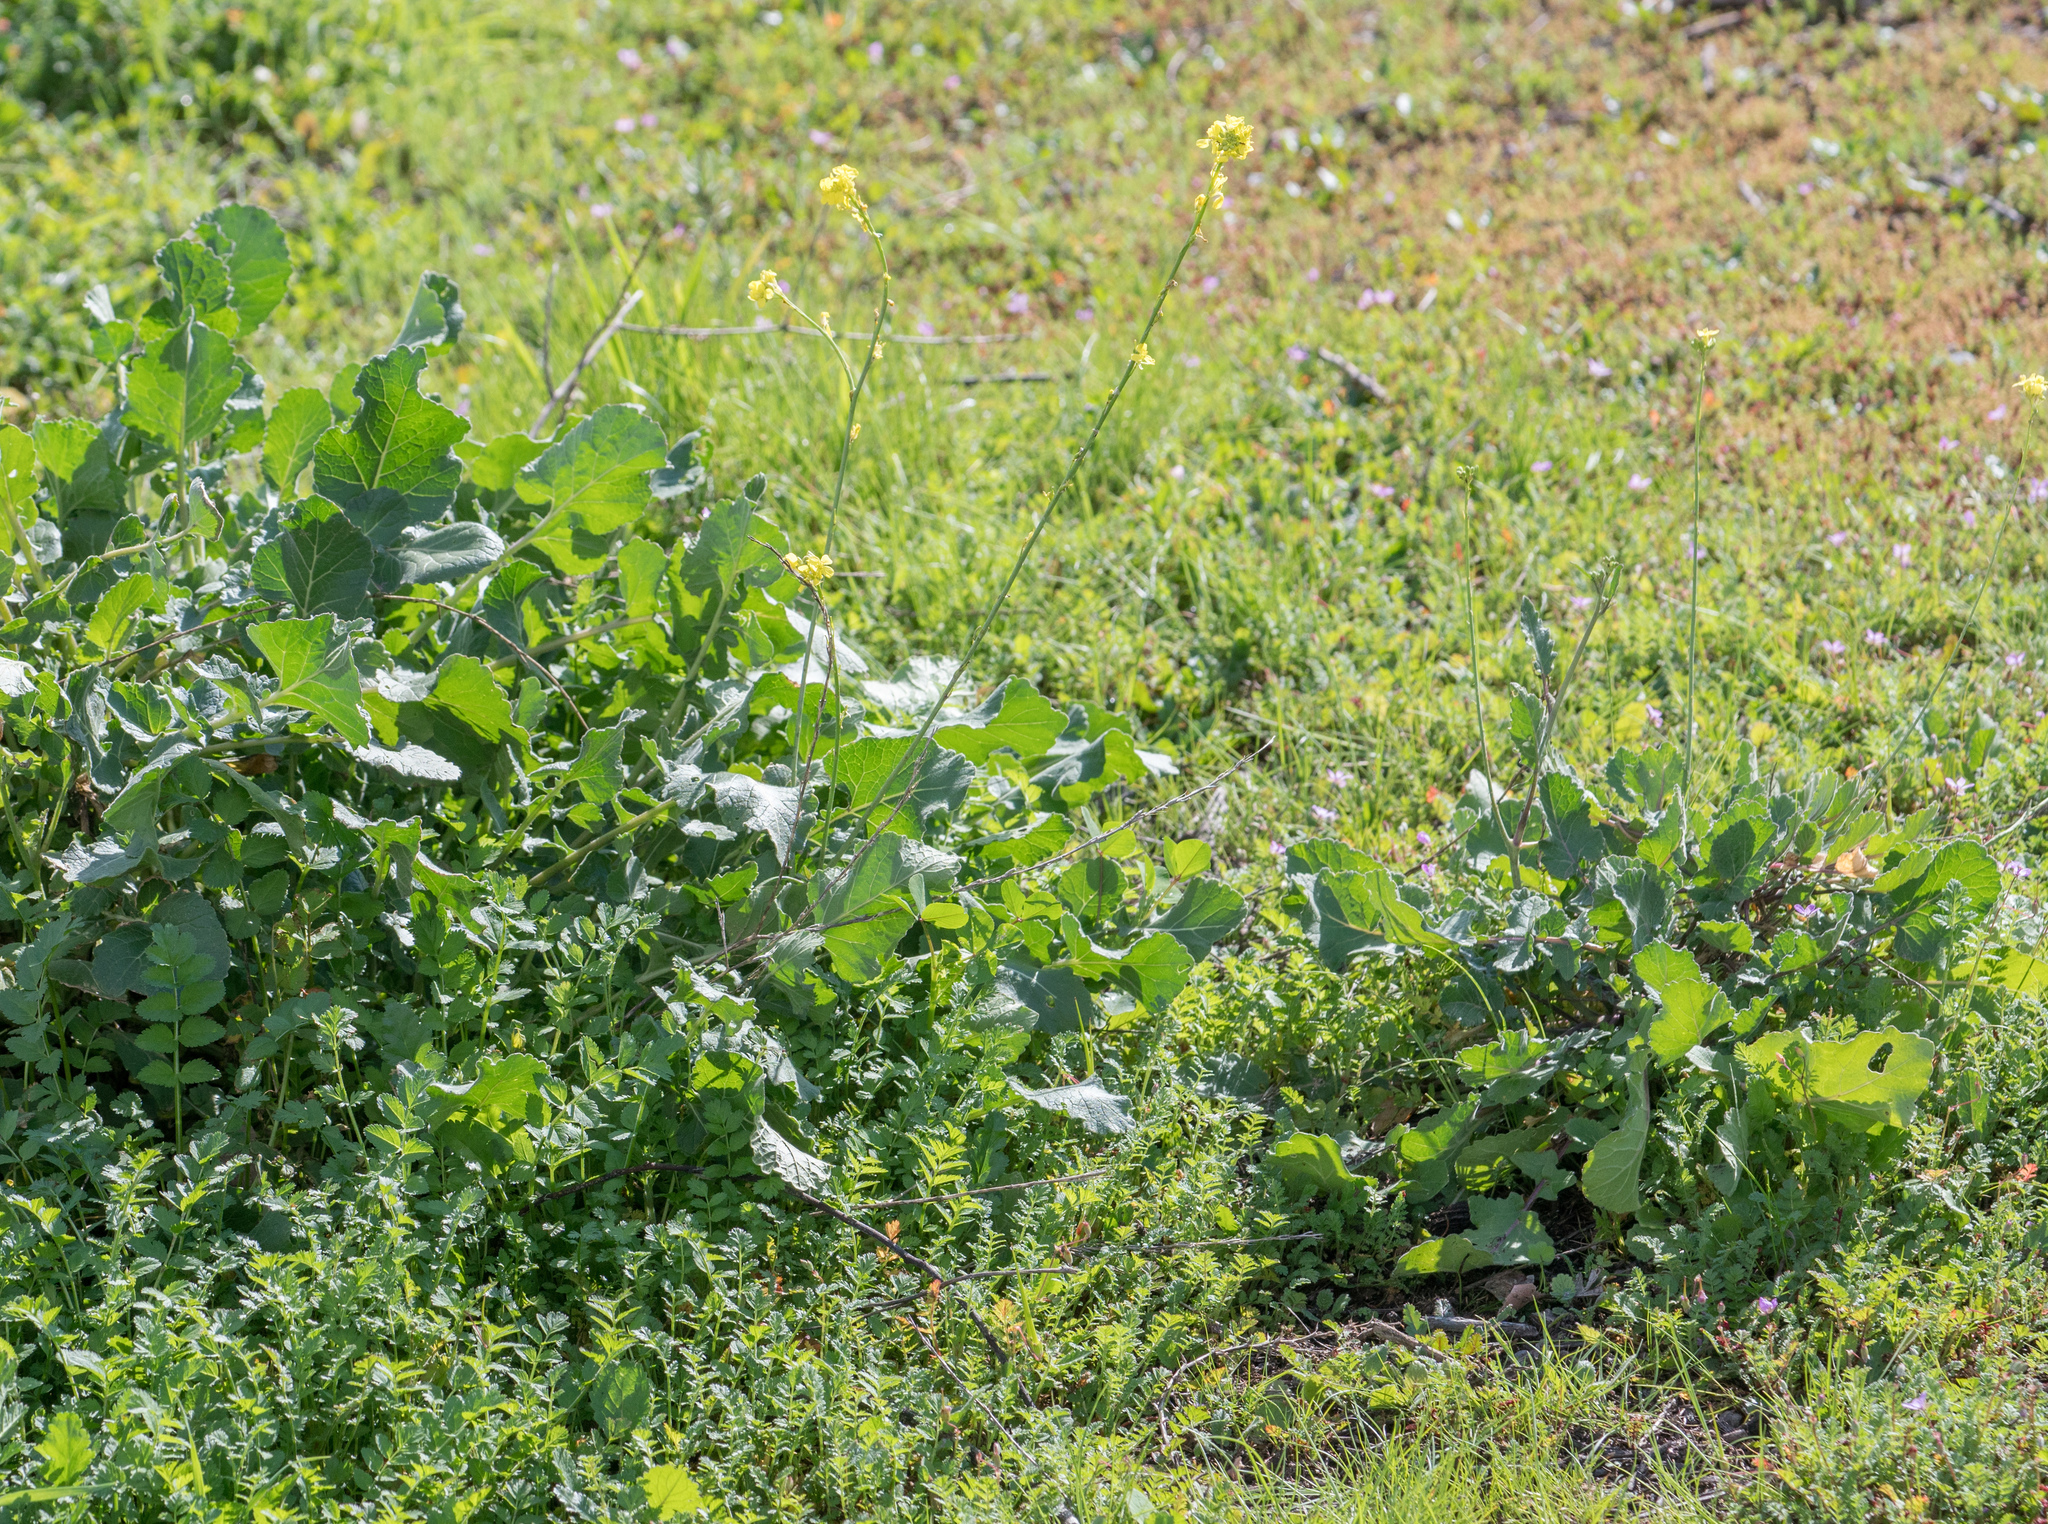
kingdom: Plantae
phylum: Tracheophyta
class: Magnoliopsida
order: Brassicales
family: Brassicaceae
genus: Hirschfeldia
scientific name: Hirschfeldia incana
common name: Hoary mustard
